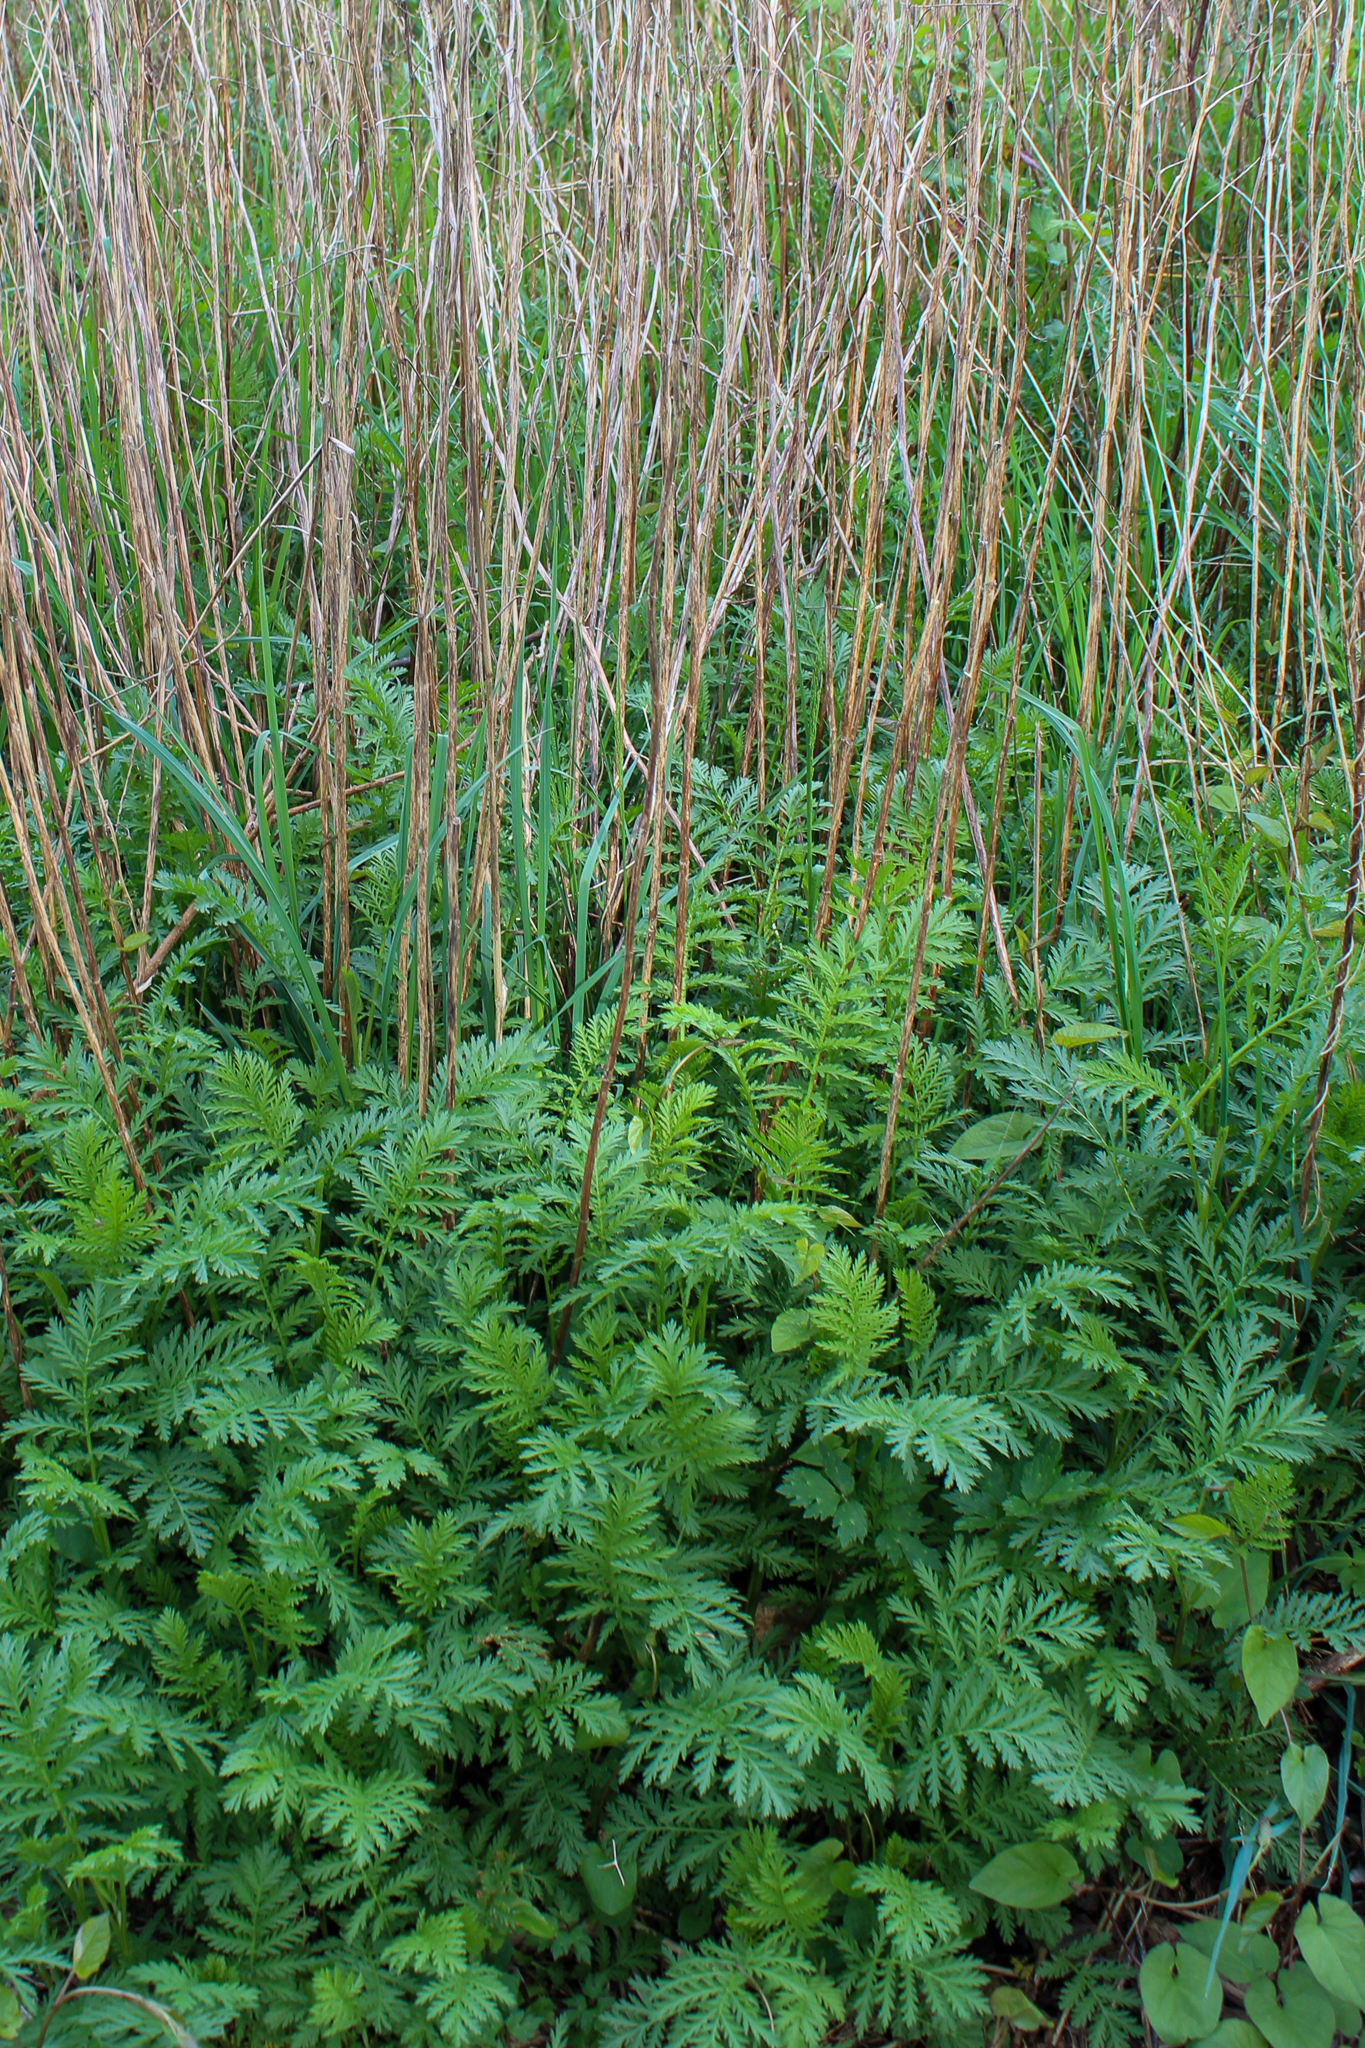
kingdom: Plantae
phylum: Tracheophyta
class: Magnoliopsida
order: Asterales
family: Asteraceae
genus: Tanacetum
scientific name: Tanacetum vulgare
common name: Common tansy
